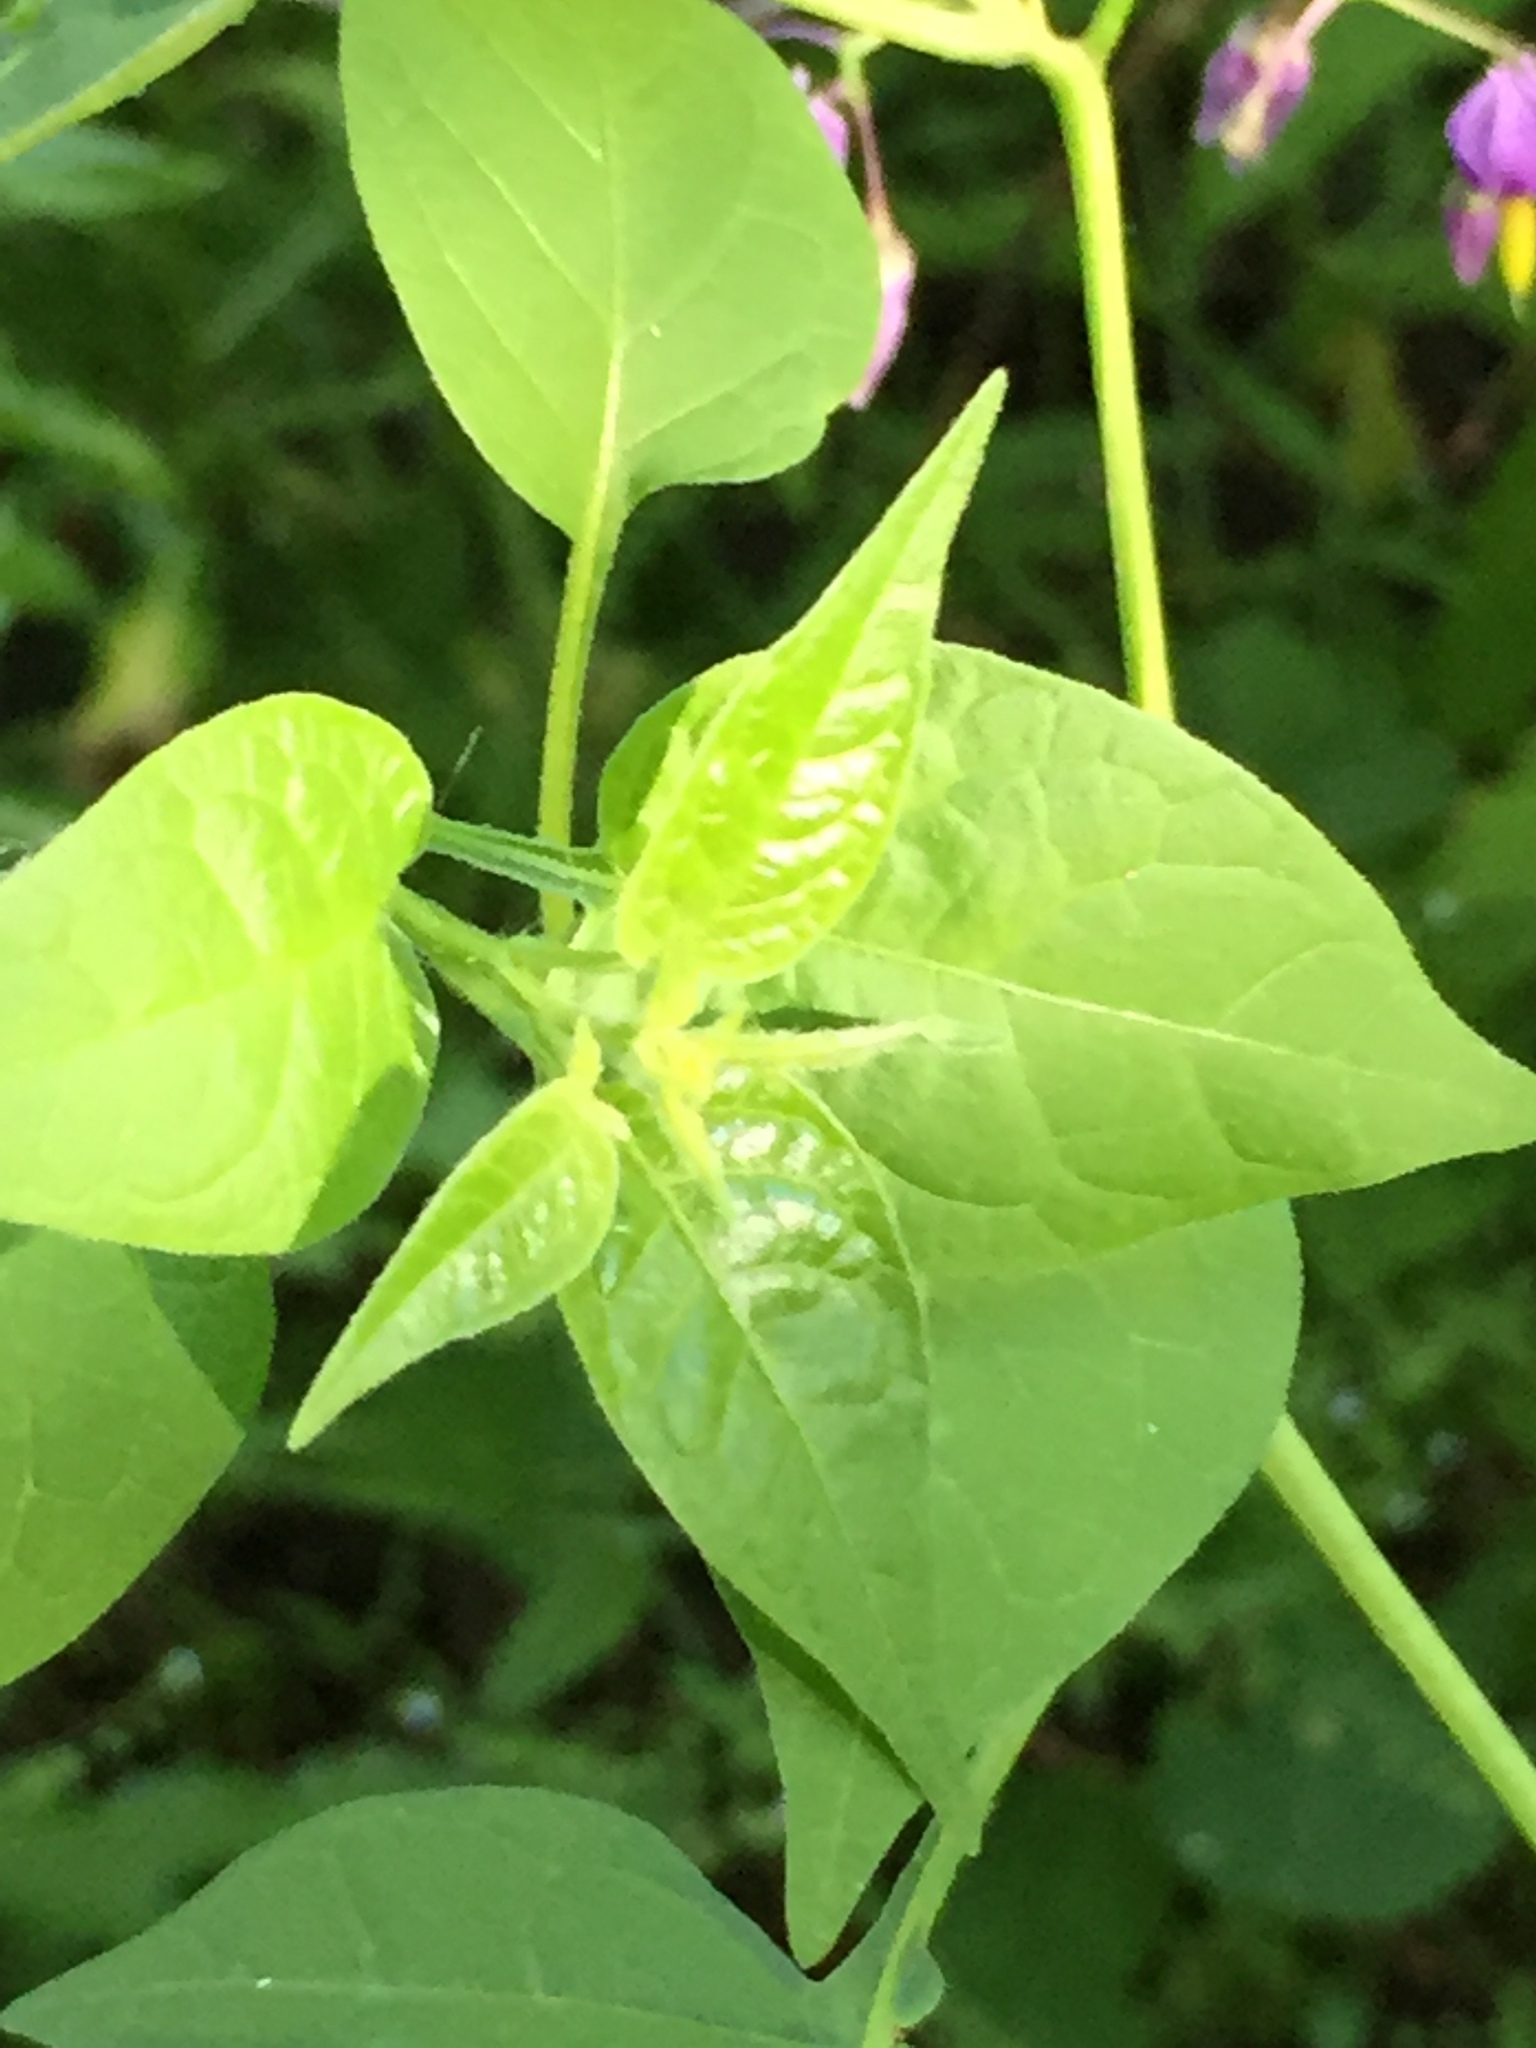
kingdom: Plantae
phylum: Tracheophyta
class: Magnoliopsida
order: Solanales
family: Solanaceae
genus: Solanum
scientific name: Solanum dulcamara
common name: Climbing nightshade
